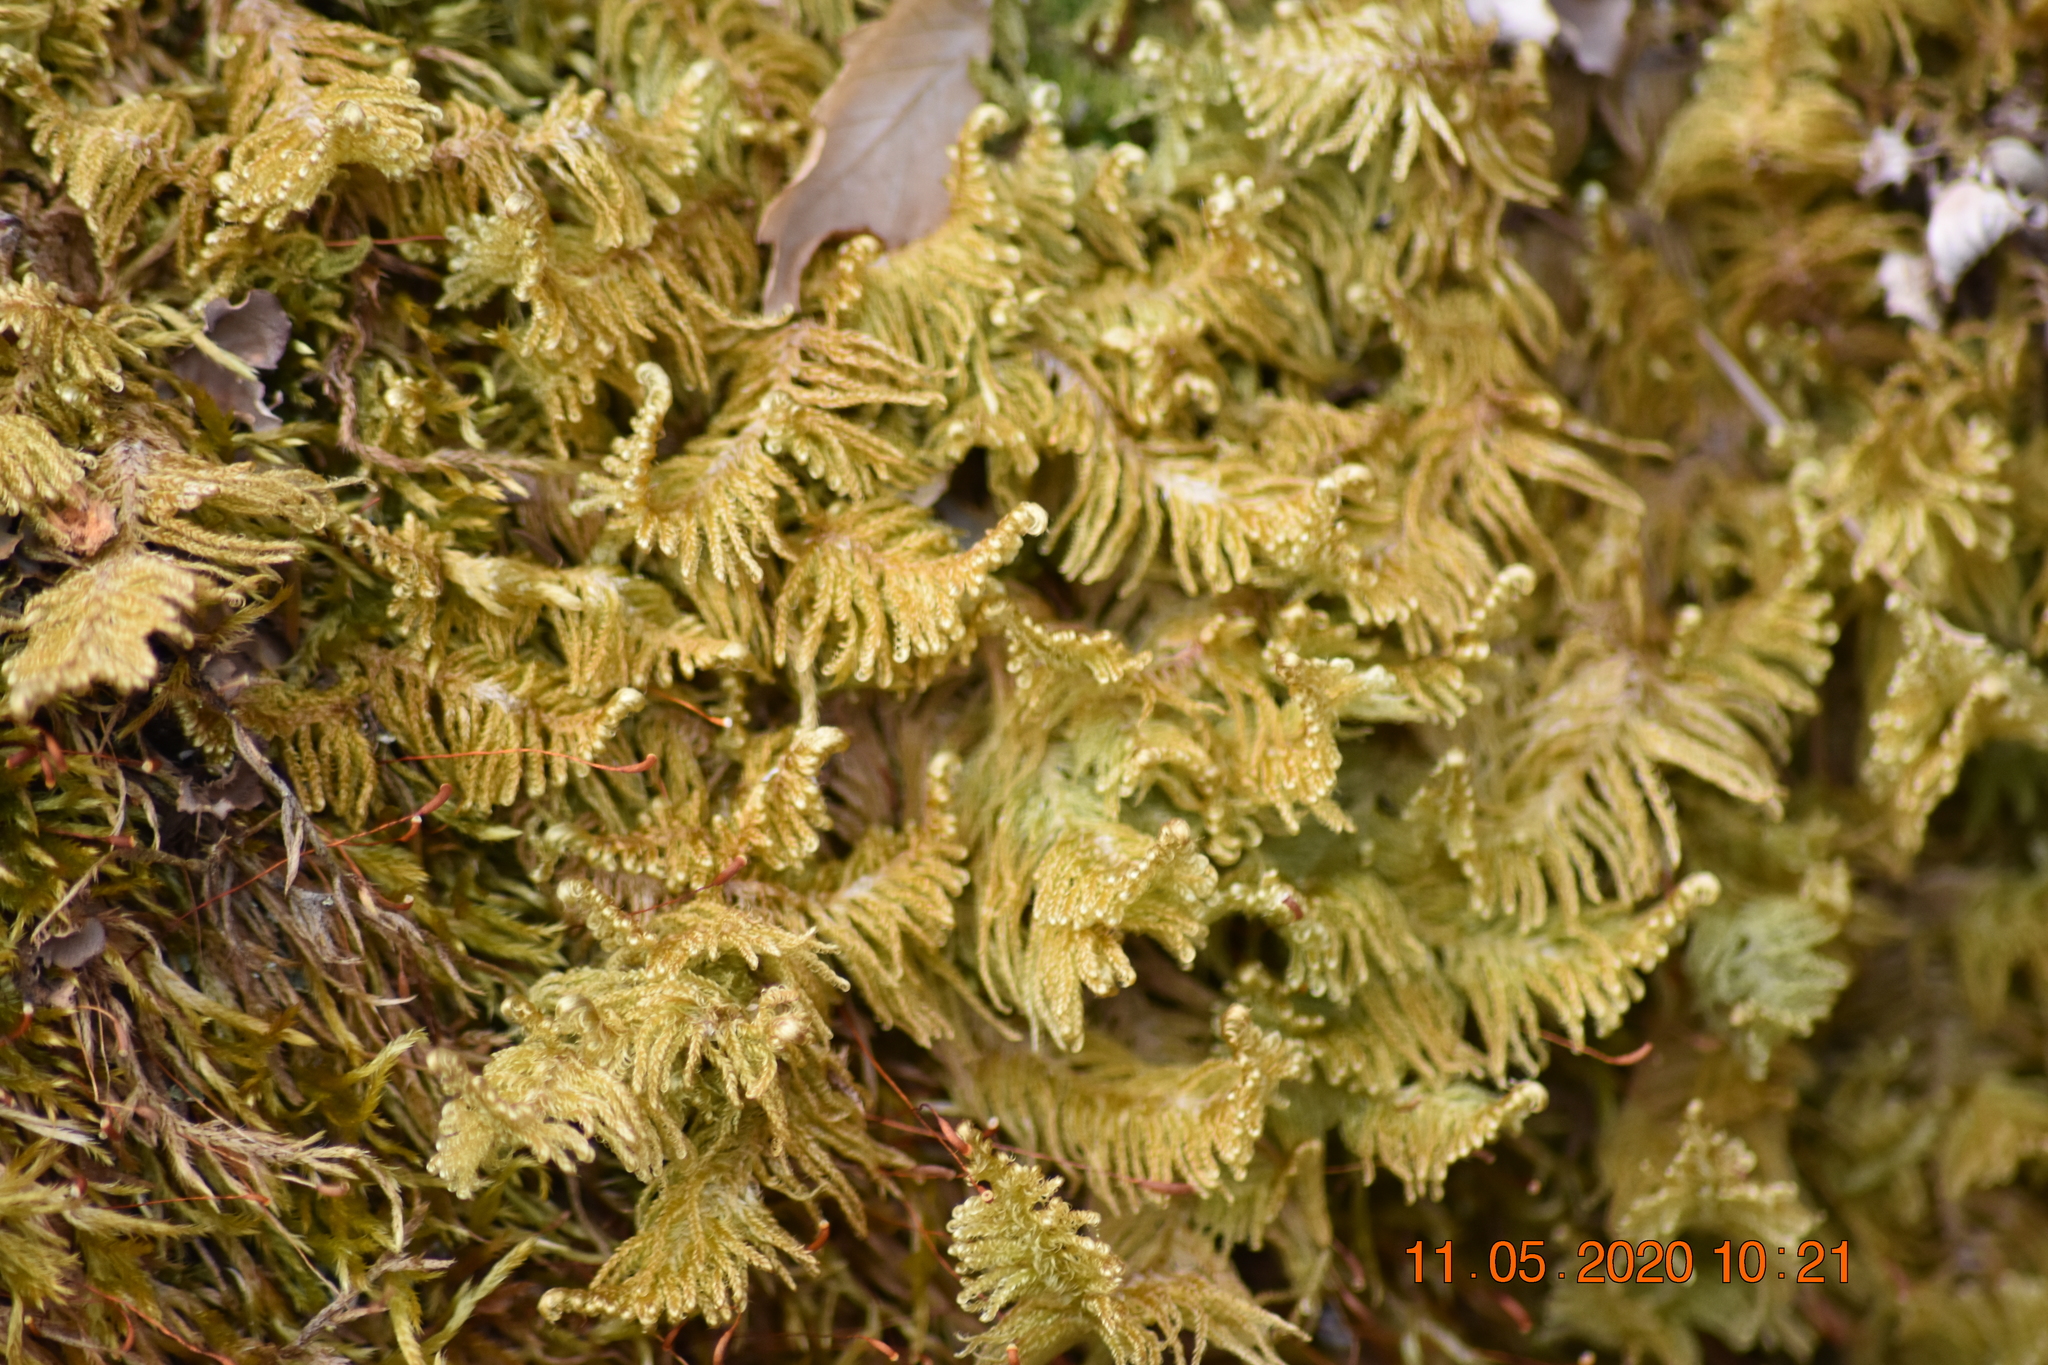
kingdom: Plantae
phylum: Bryophyta
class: Bryopsida
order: Hypnales
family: Pylaisiaceae
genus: Ptilium
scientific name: Ptilium crista-castrensis
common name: Knight's plume moss
